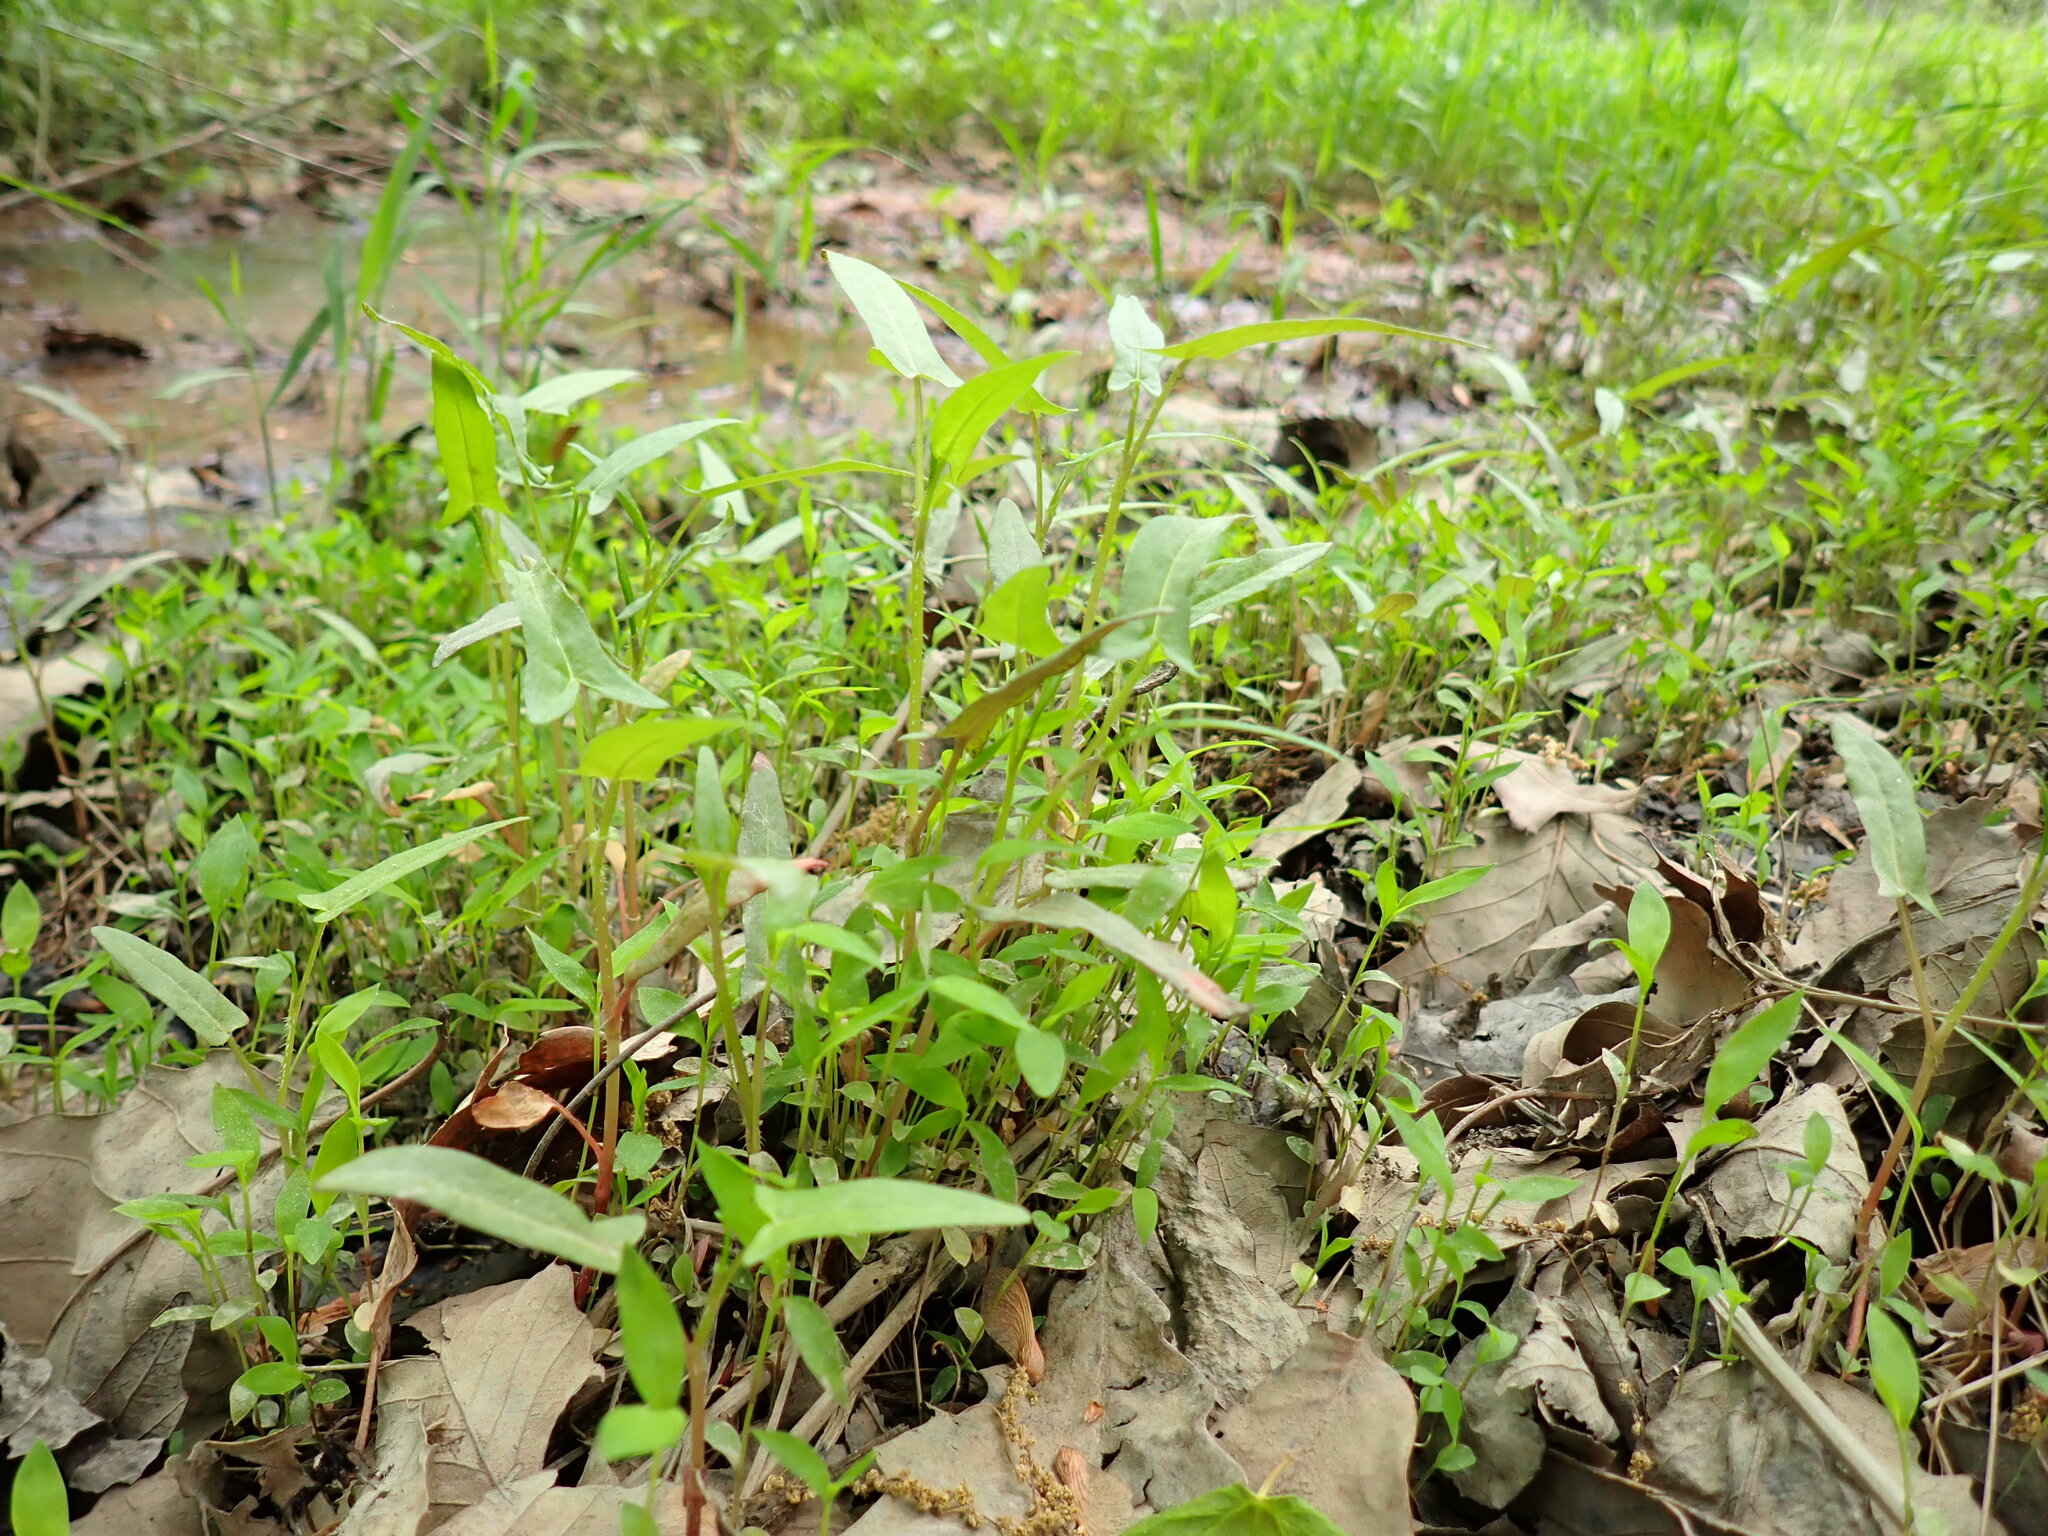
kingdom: Plantae
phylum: Tracheophyta
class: Magnoliopsida
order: Caryophyllales
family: Polygonaceae
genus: Persicaria
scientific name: Persicaria arifolia
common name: Halberd-leaved tear-thumb
